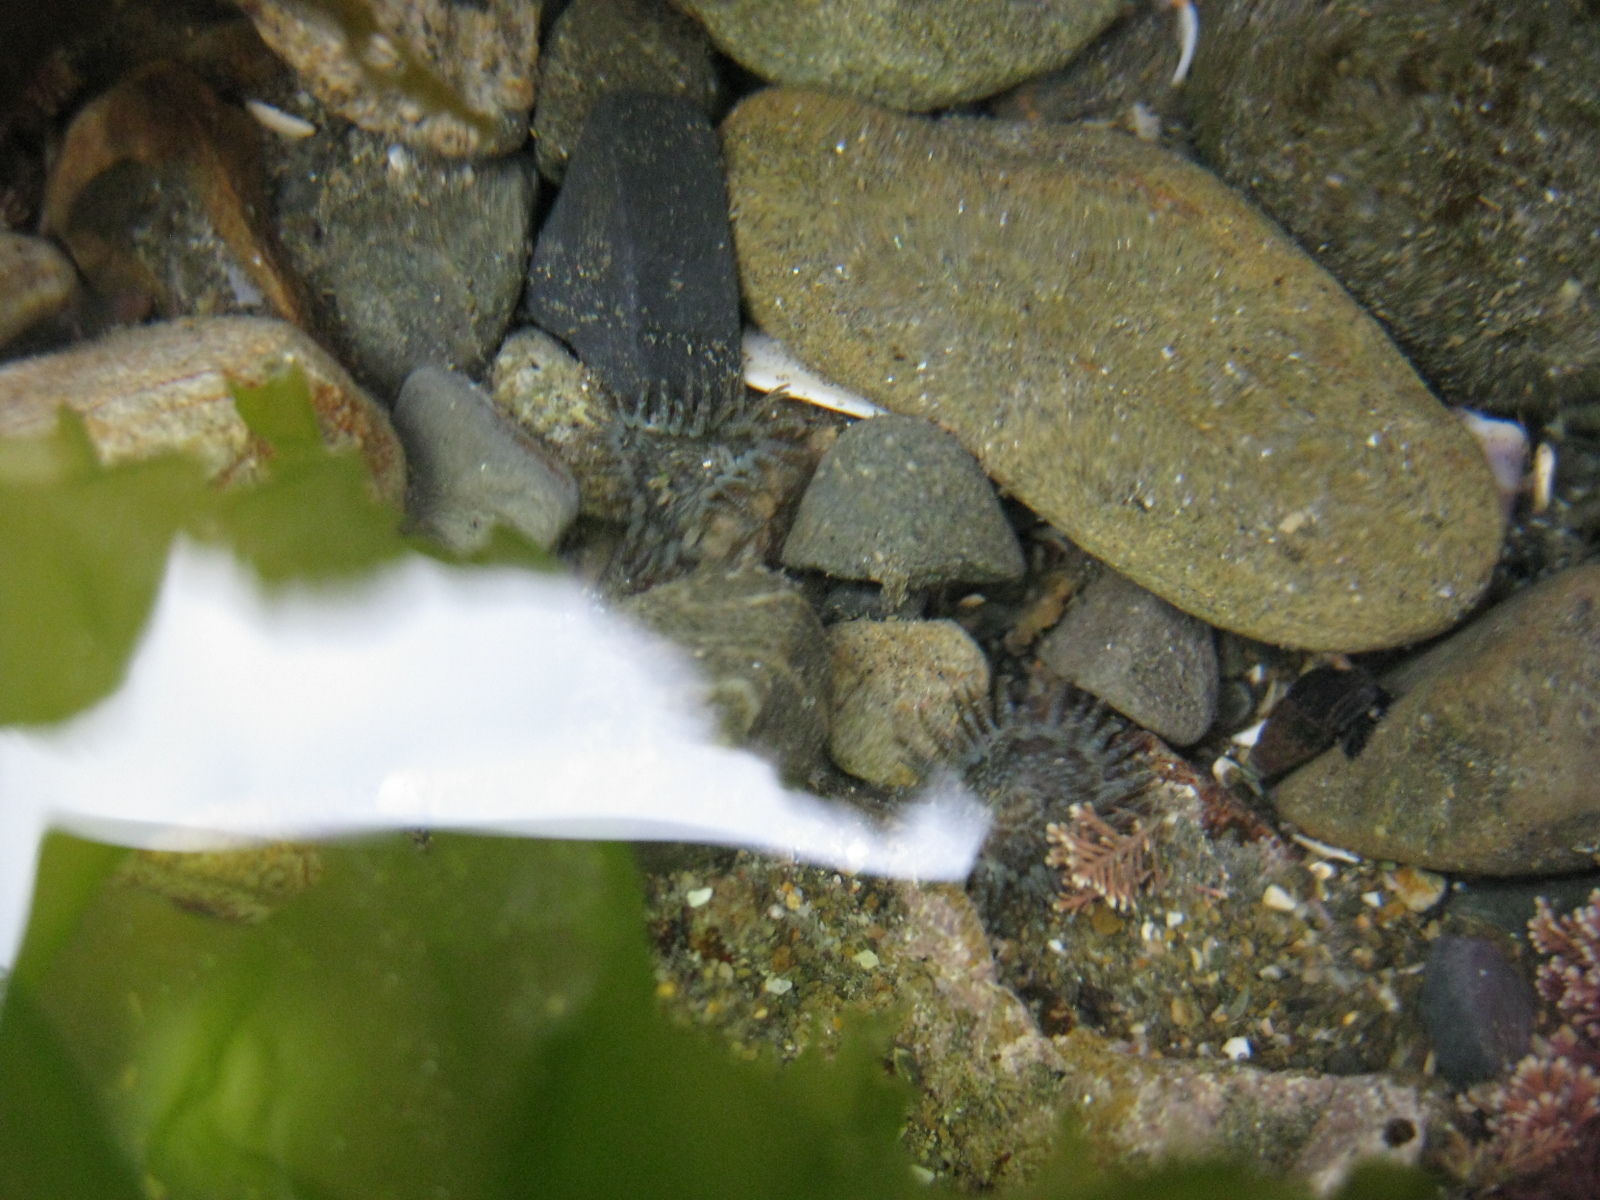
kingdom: Animalia
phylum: Cnidaria
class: Anthozoa
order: Actiniaria
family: Actiniidae
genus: Anthopleura
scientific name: Anthopleura hermaphroditica
